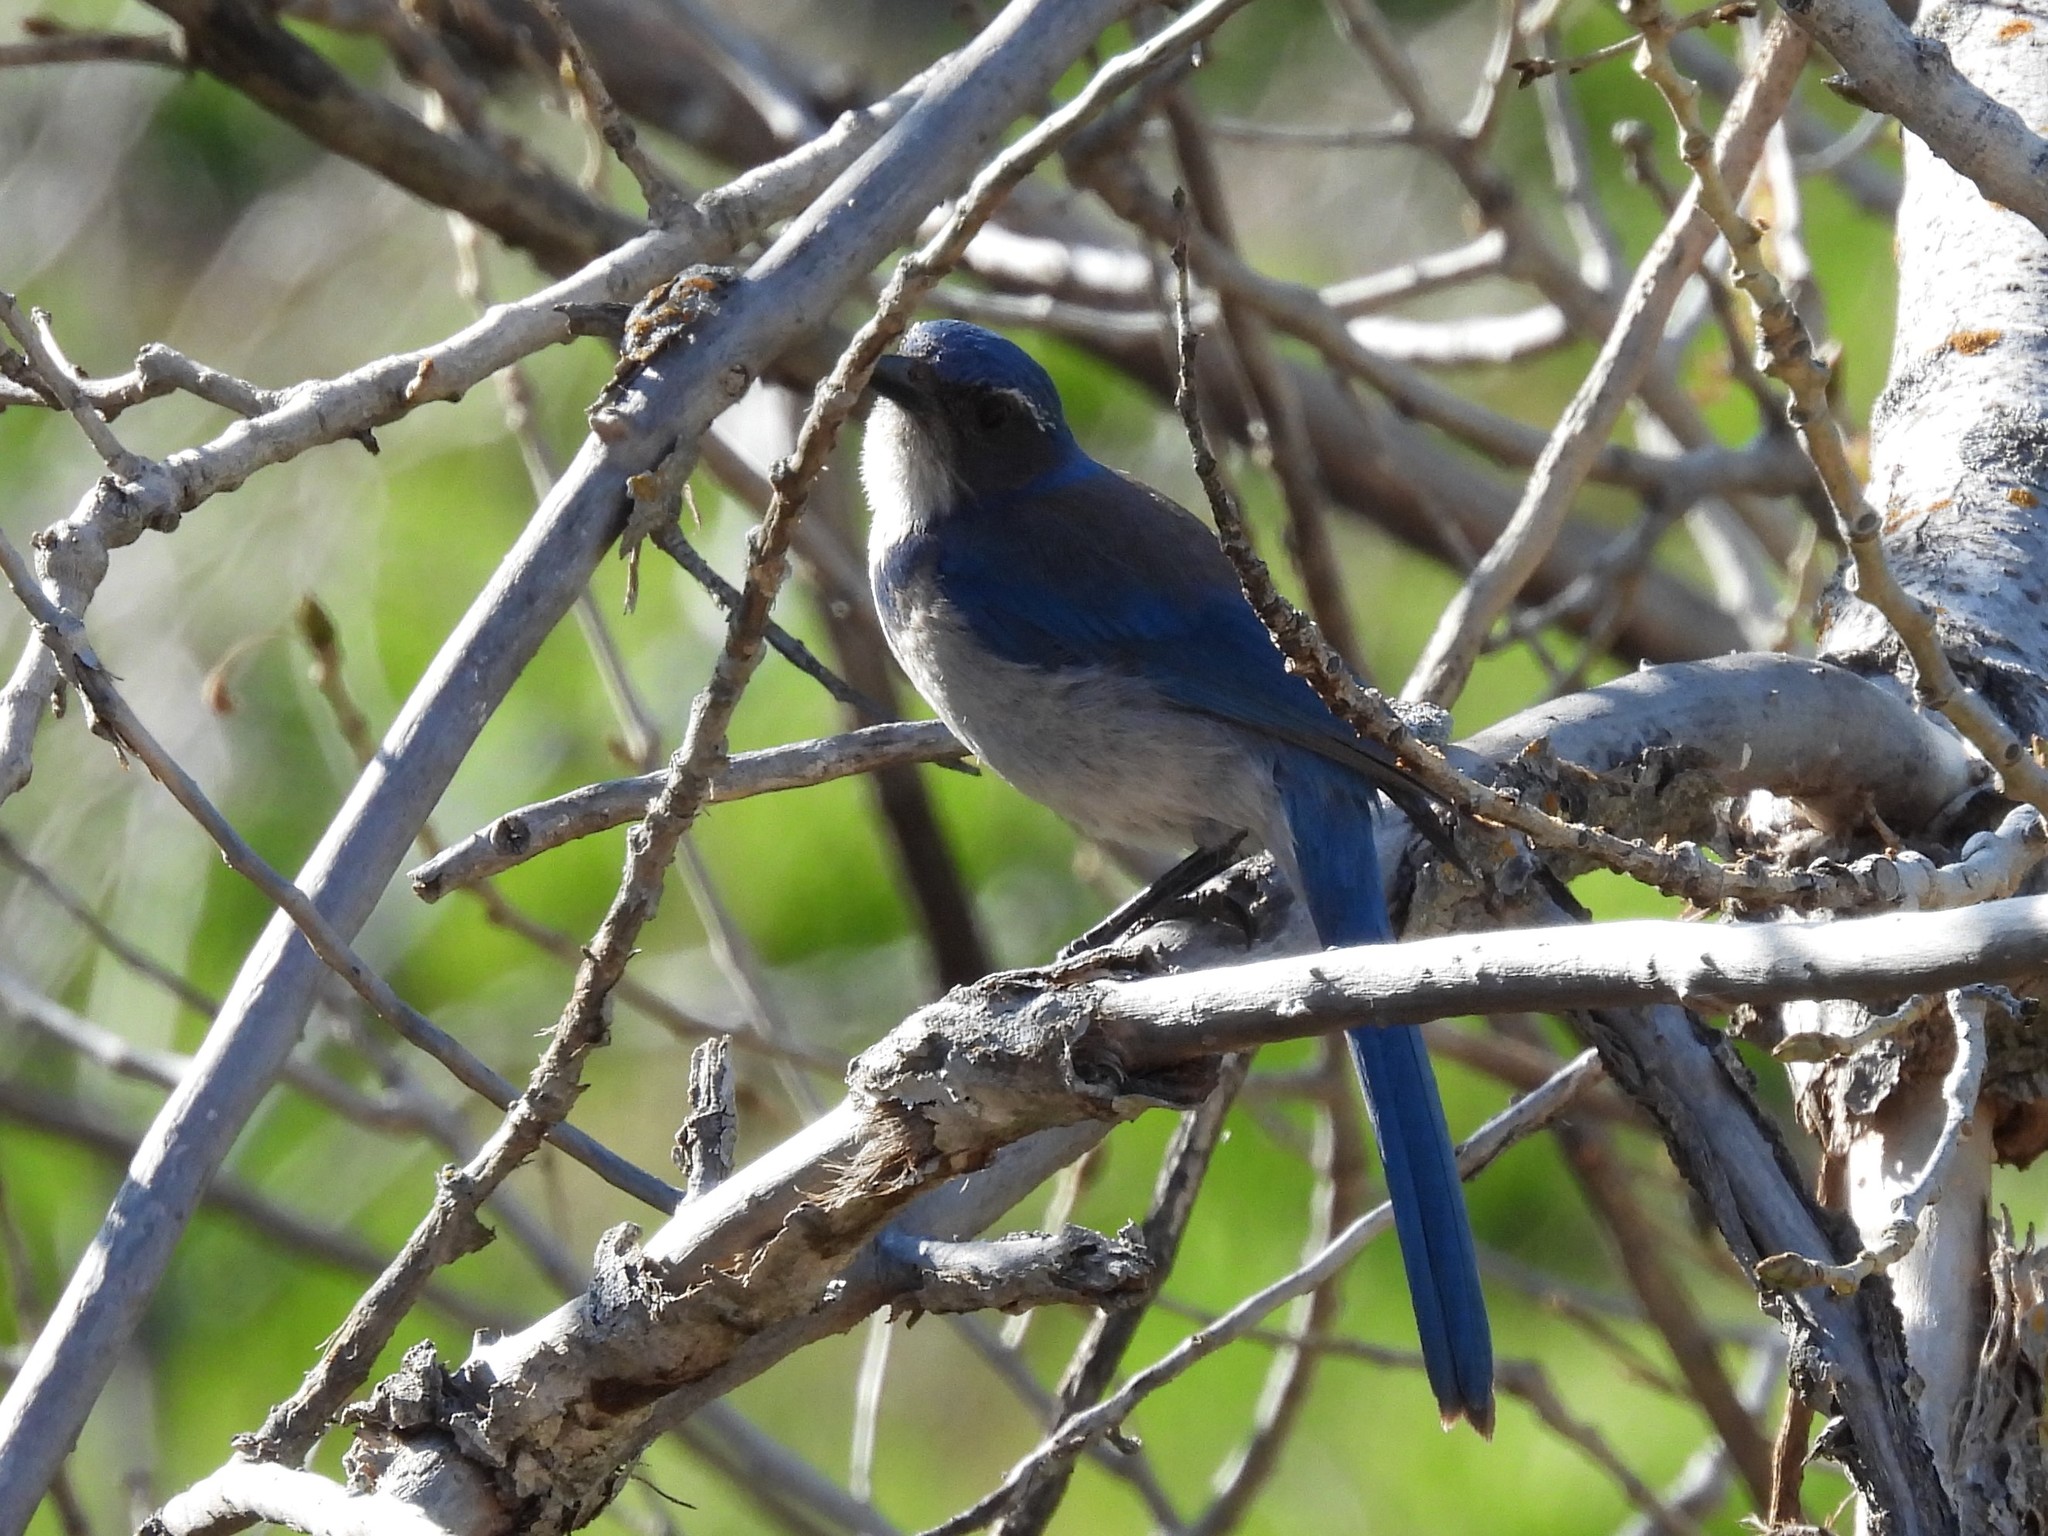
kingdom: Animalia
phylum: Chordata
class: Aves
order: Passeriformes
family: Corvidae
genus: Aphelocoma
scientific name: Aphelocoma californica
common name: California scrub-jay
